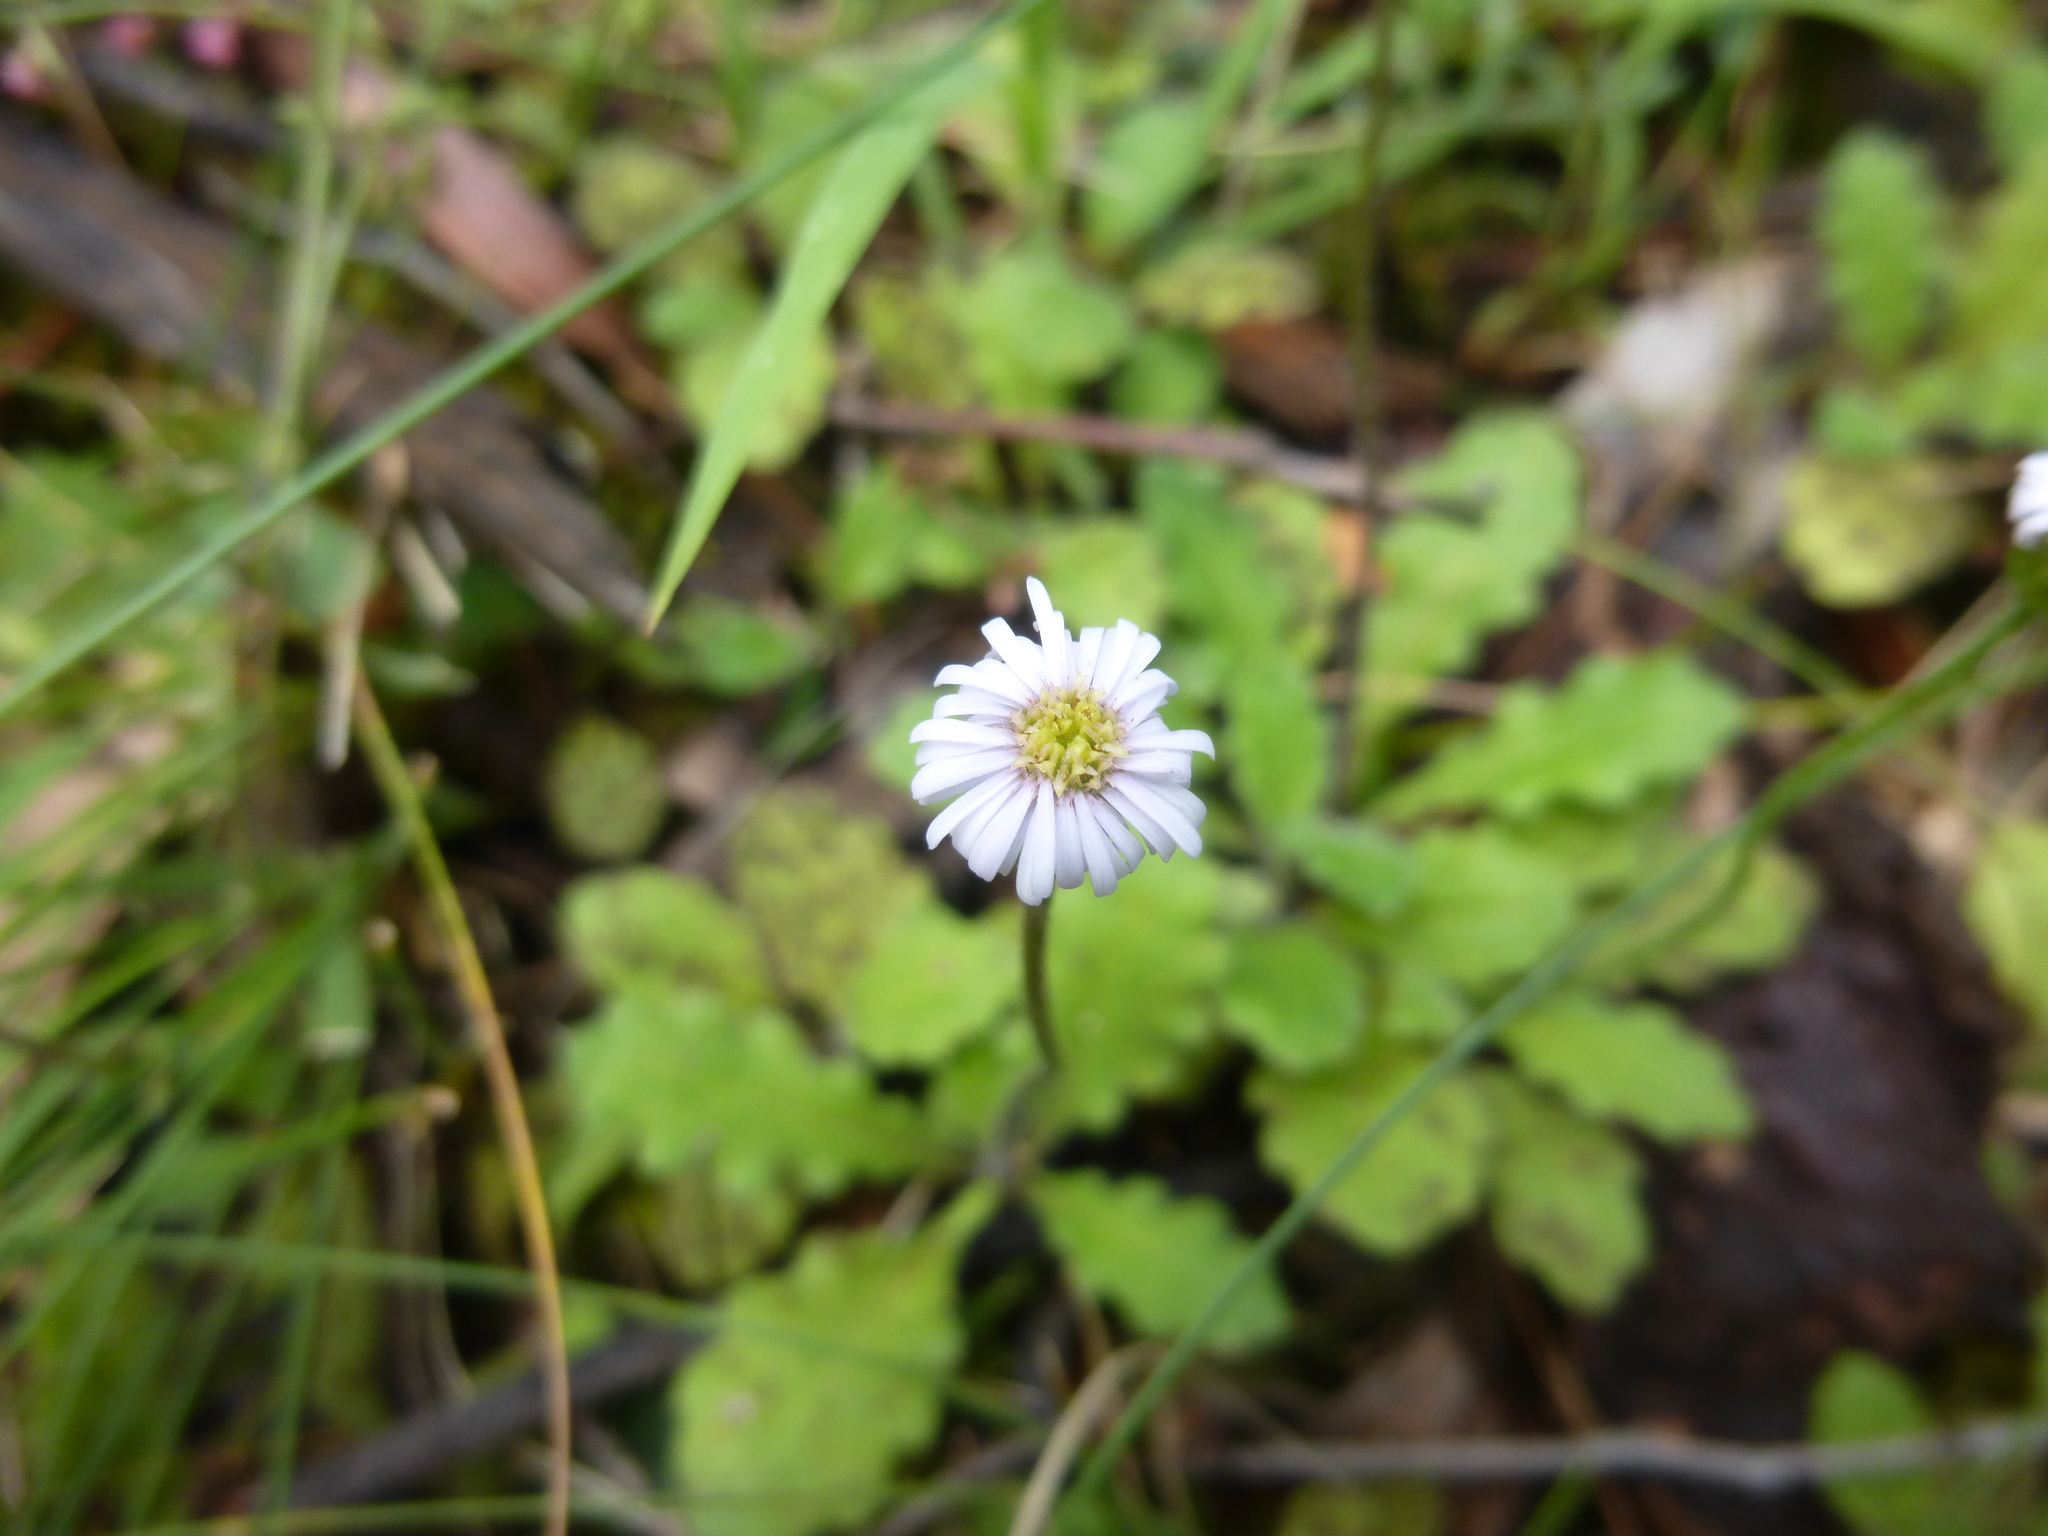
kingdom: Plantae
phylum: Tracheophyta
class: Magnoliopsida
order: Asterales
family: Asteraceae
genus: Lagenophora
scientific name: Lagenophora stipitata
